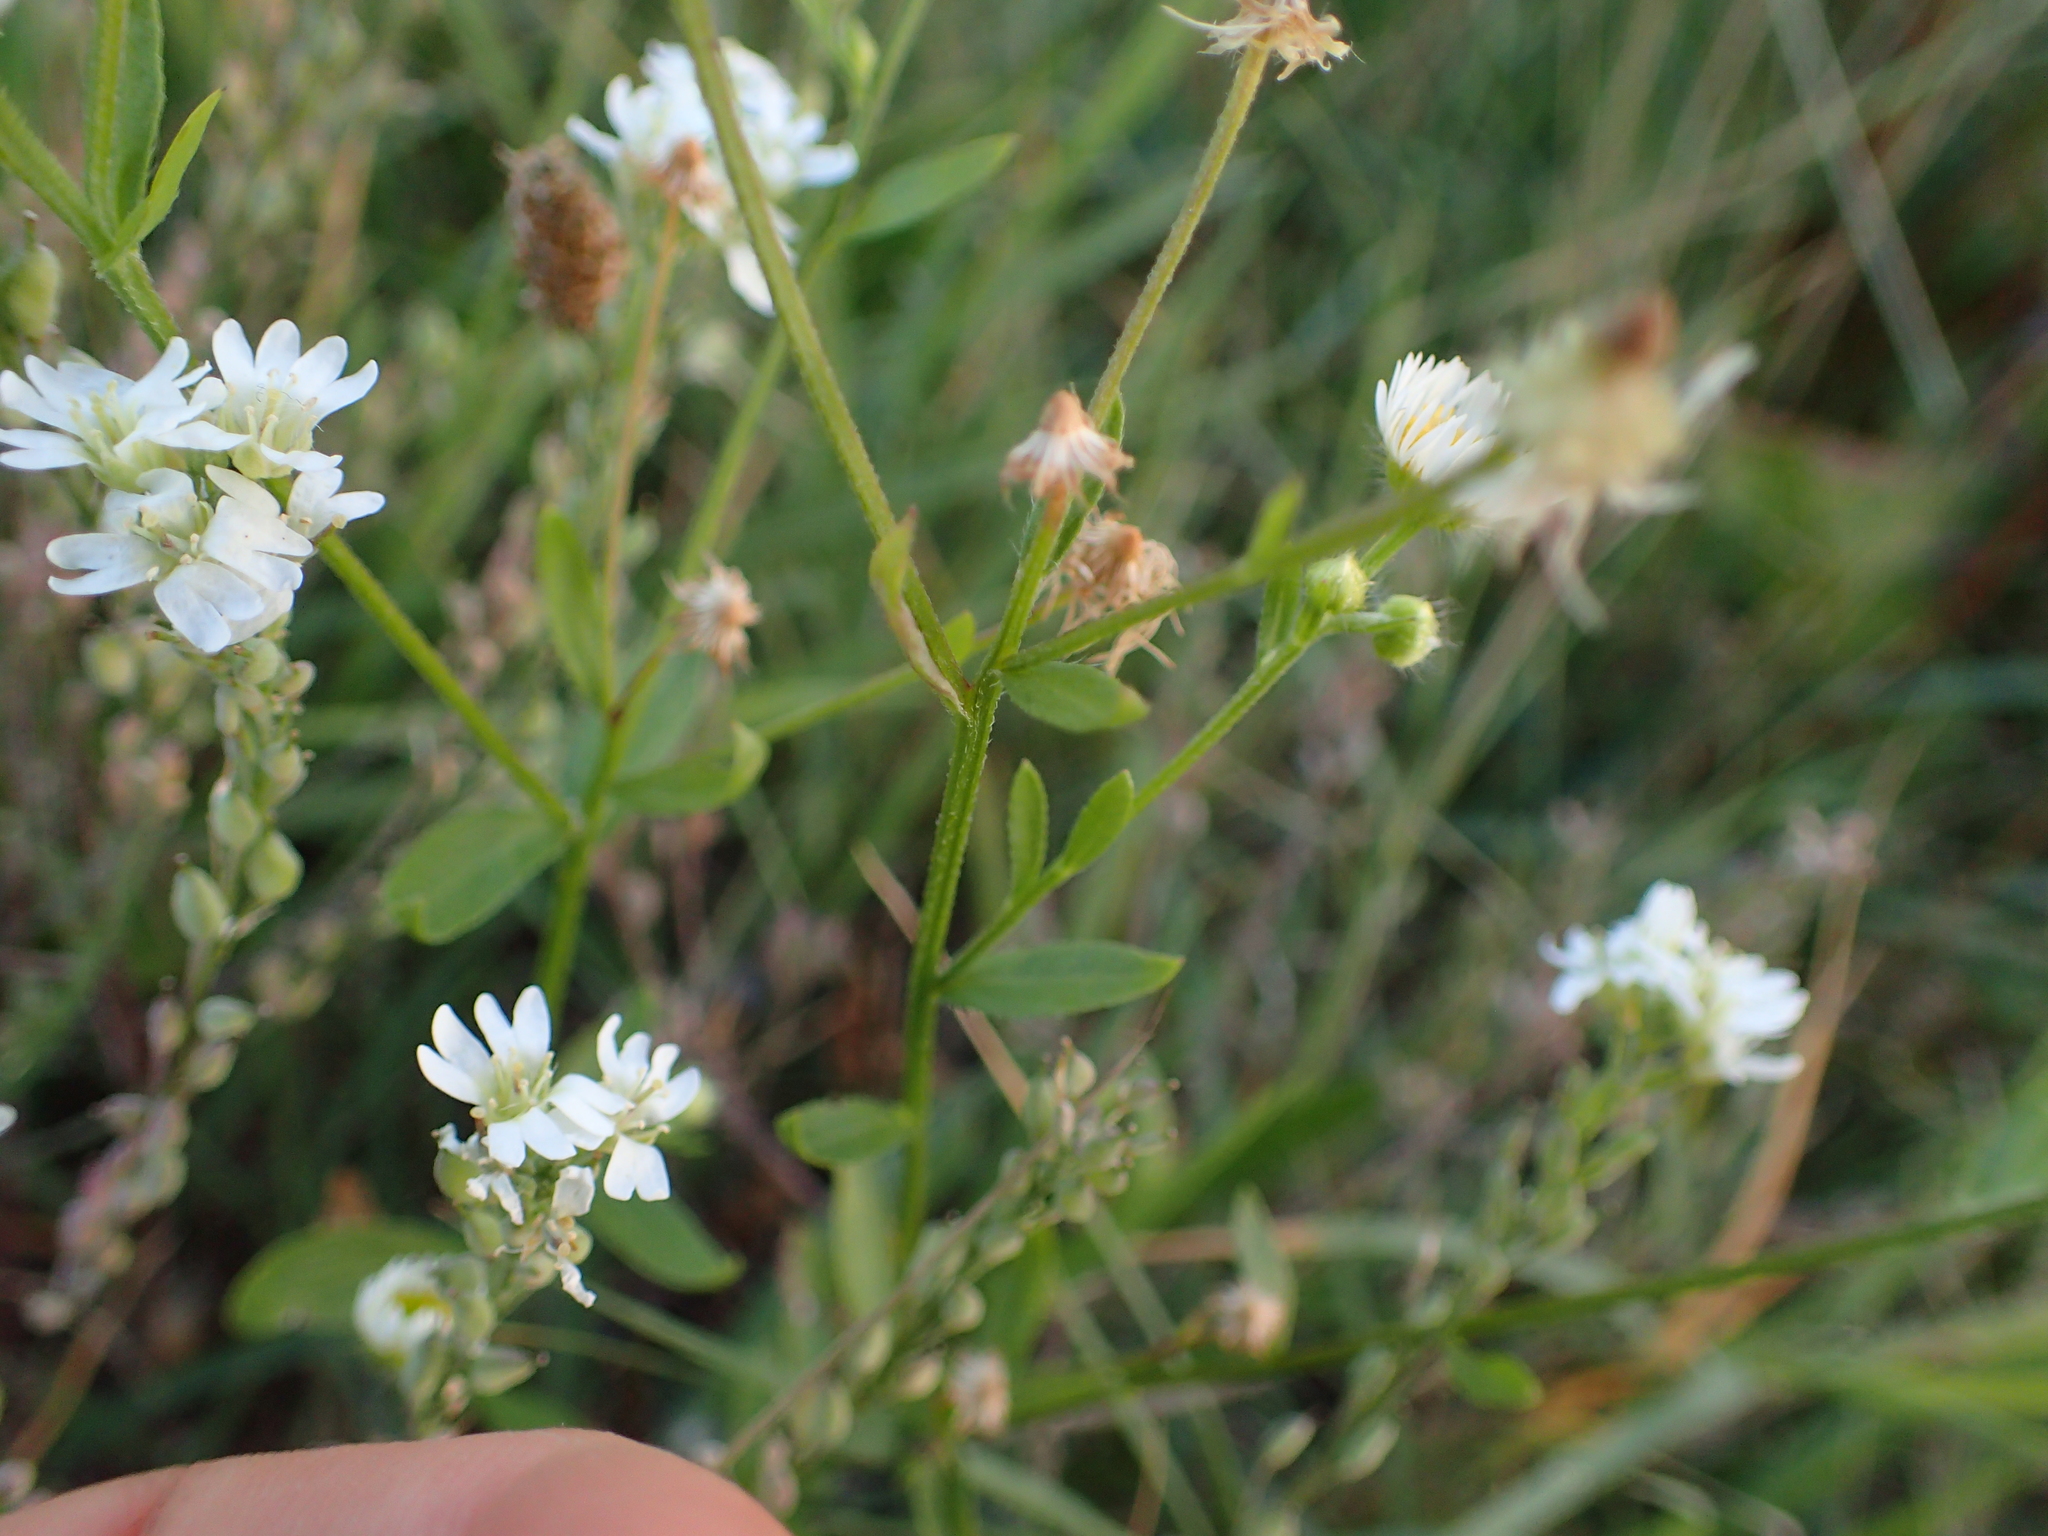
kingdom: Plantae
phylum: Tracheophyta
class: Magnoliopsida
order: Asterales
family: Asteraceae
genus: Erigeron
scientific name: Erigeron annuus
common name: Tall fleabane
